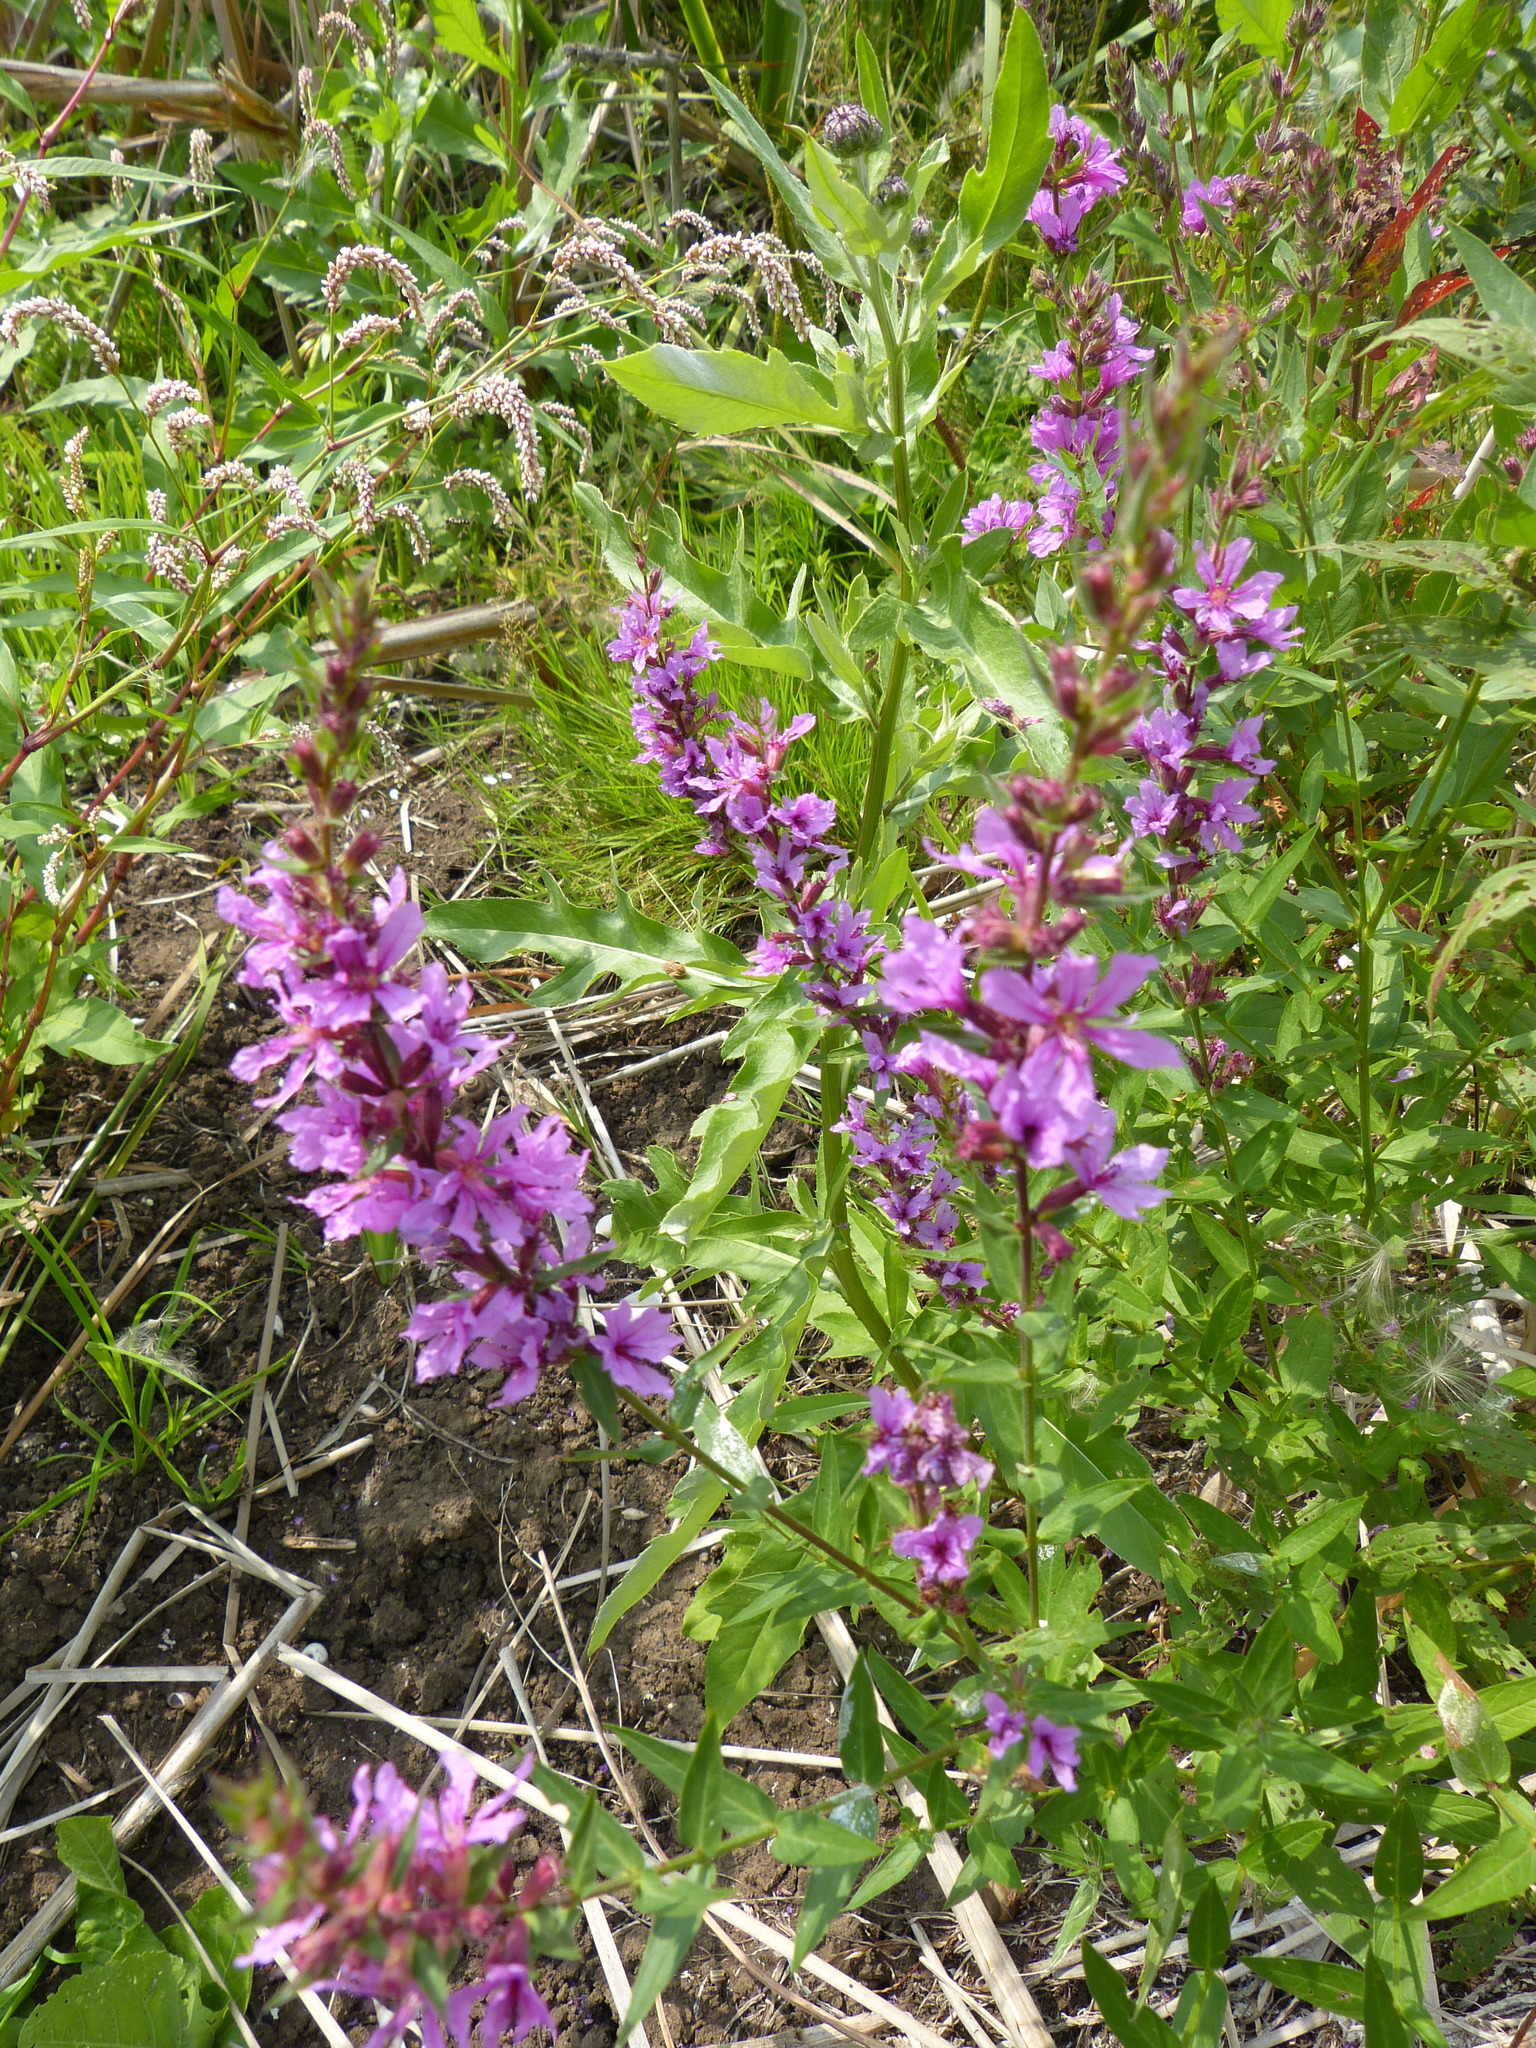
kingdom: Plantae
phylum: Tracheophyta
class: Magnoliopsida
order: Myrtales
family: Lythraceae
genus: Lythrum
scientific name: Lythrum salicaria
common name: Purple loosestrife
